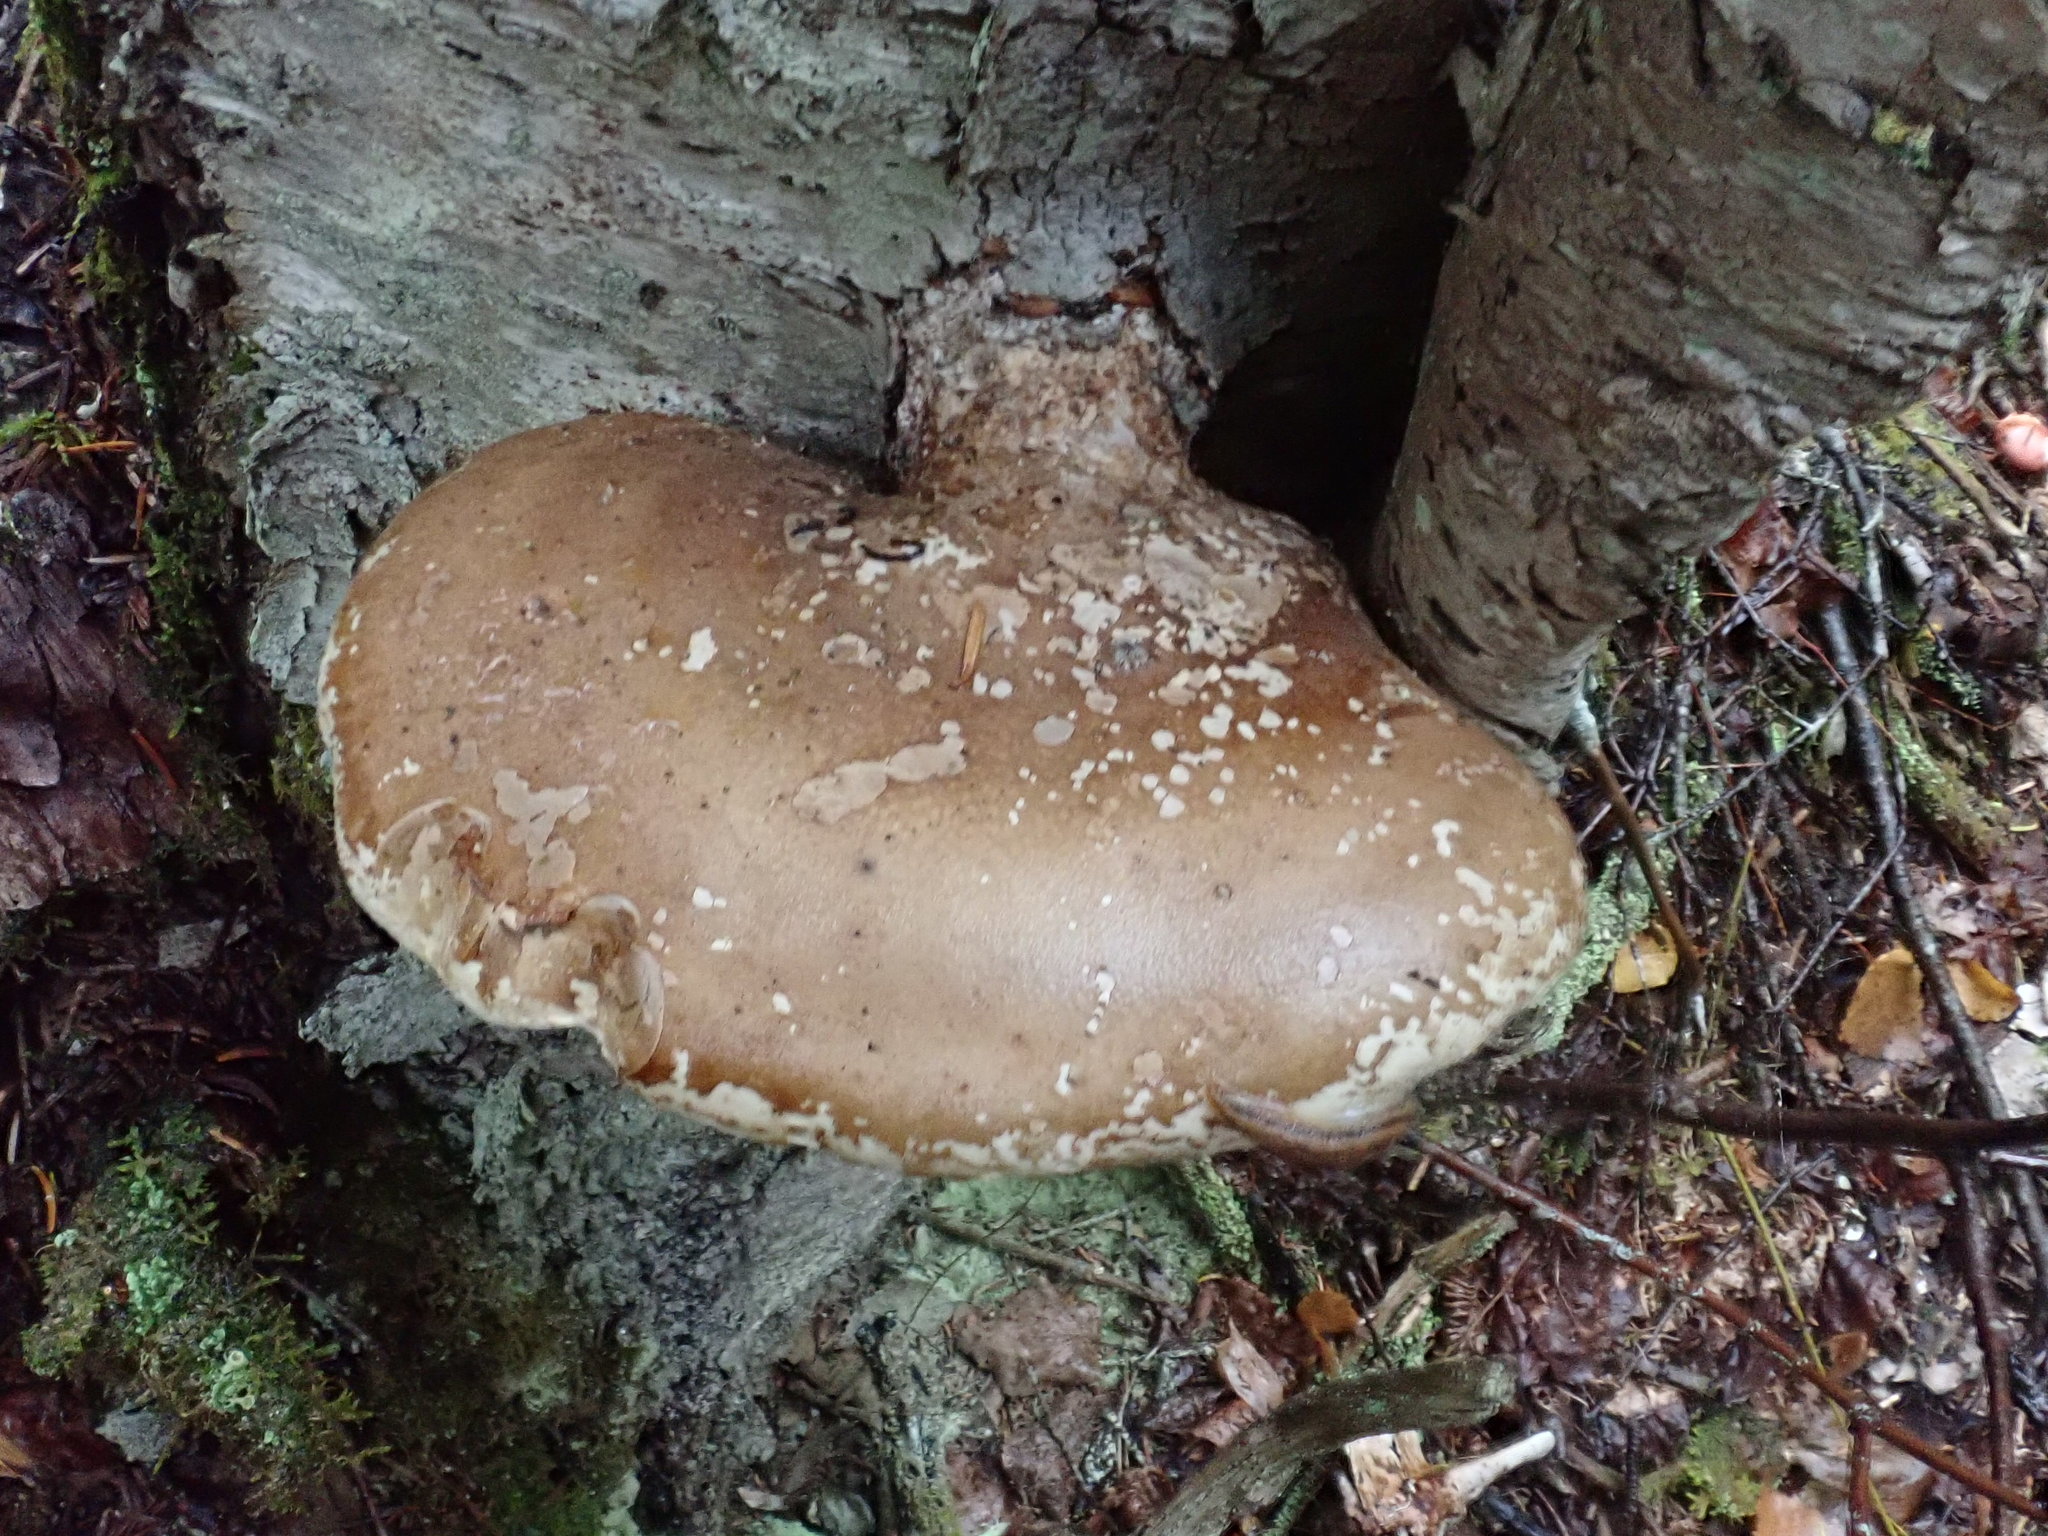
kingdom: Fungi
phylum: Basidiomycota
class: Agaricomycetes
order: Polyporales
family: Fomitopsidaceae
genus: Fomitopsis
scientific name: Fomitopsis betulina
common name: Birch polypore
